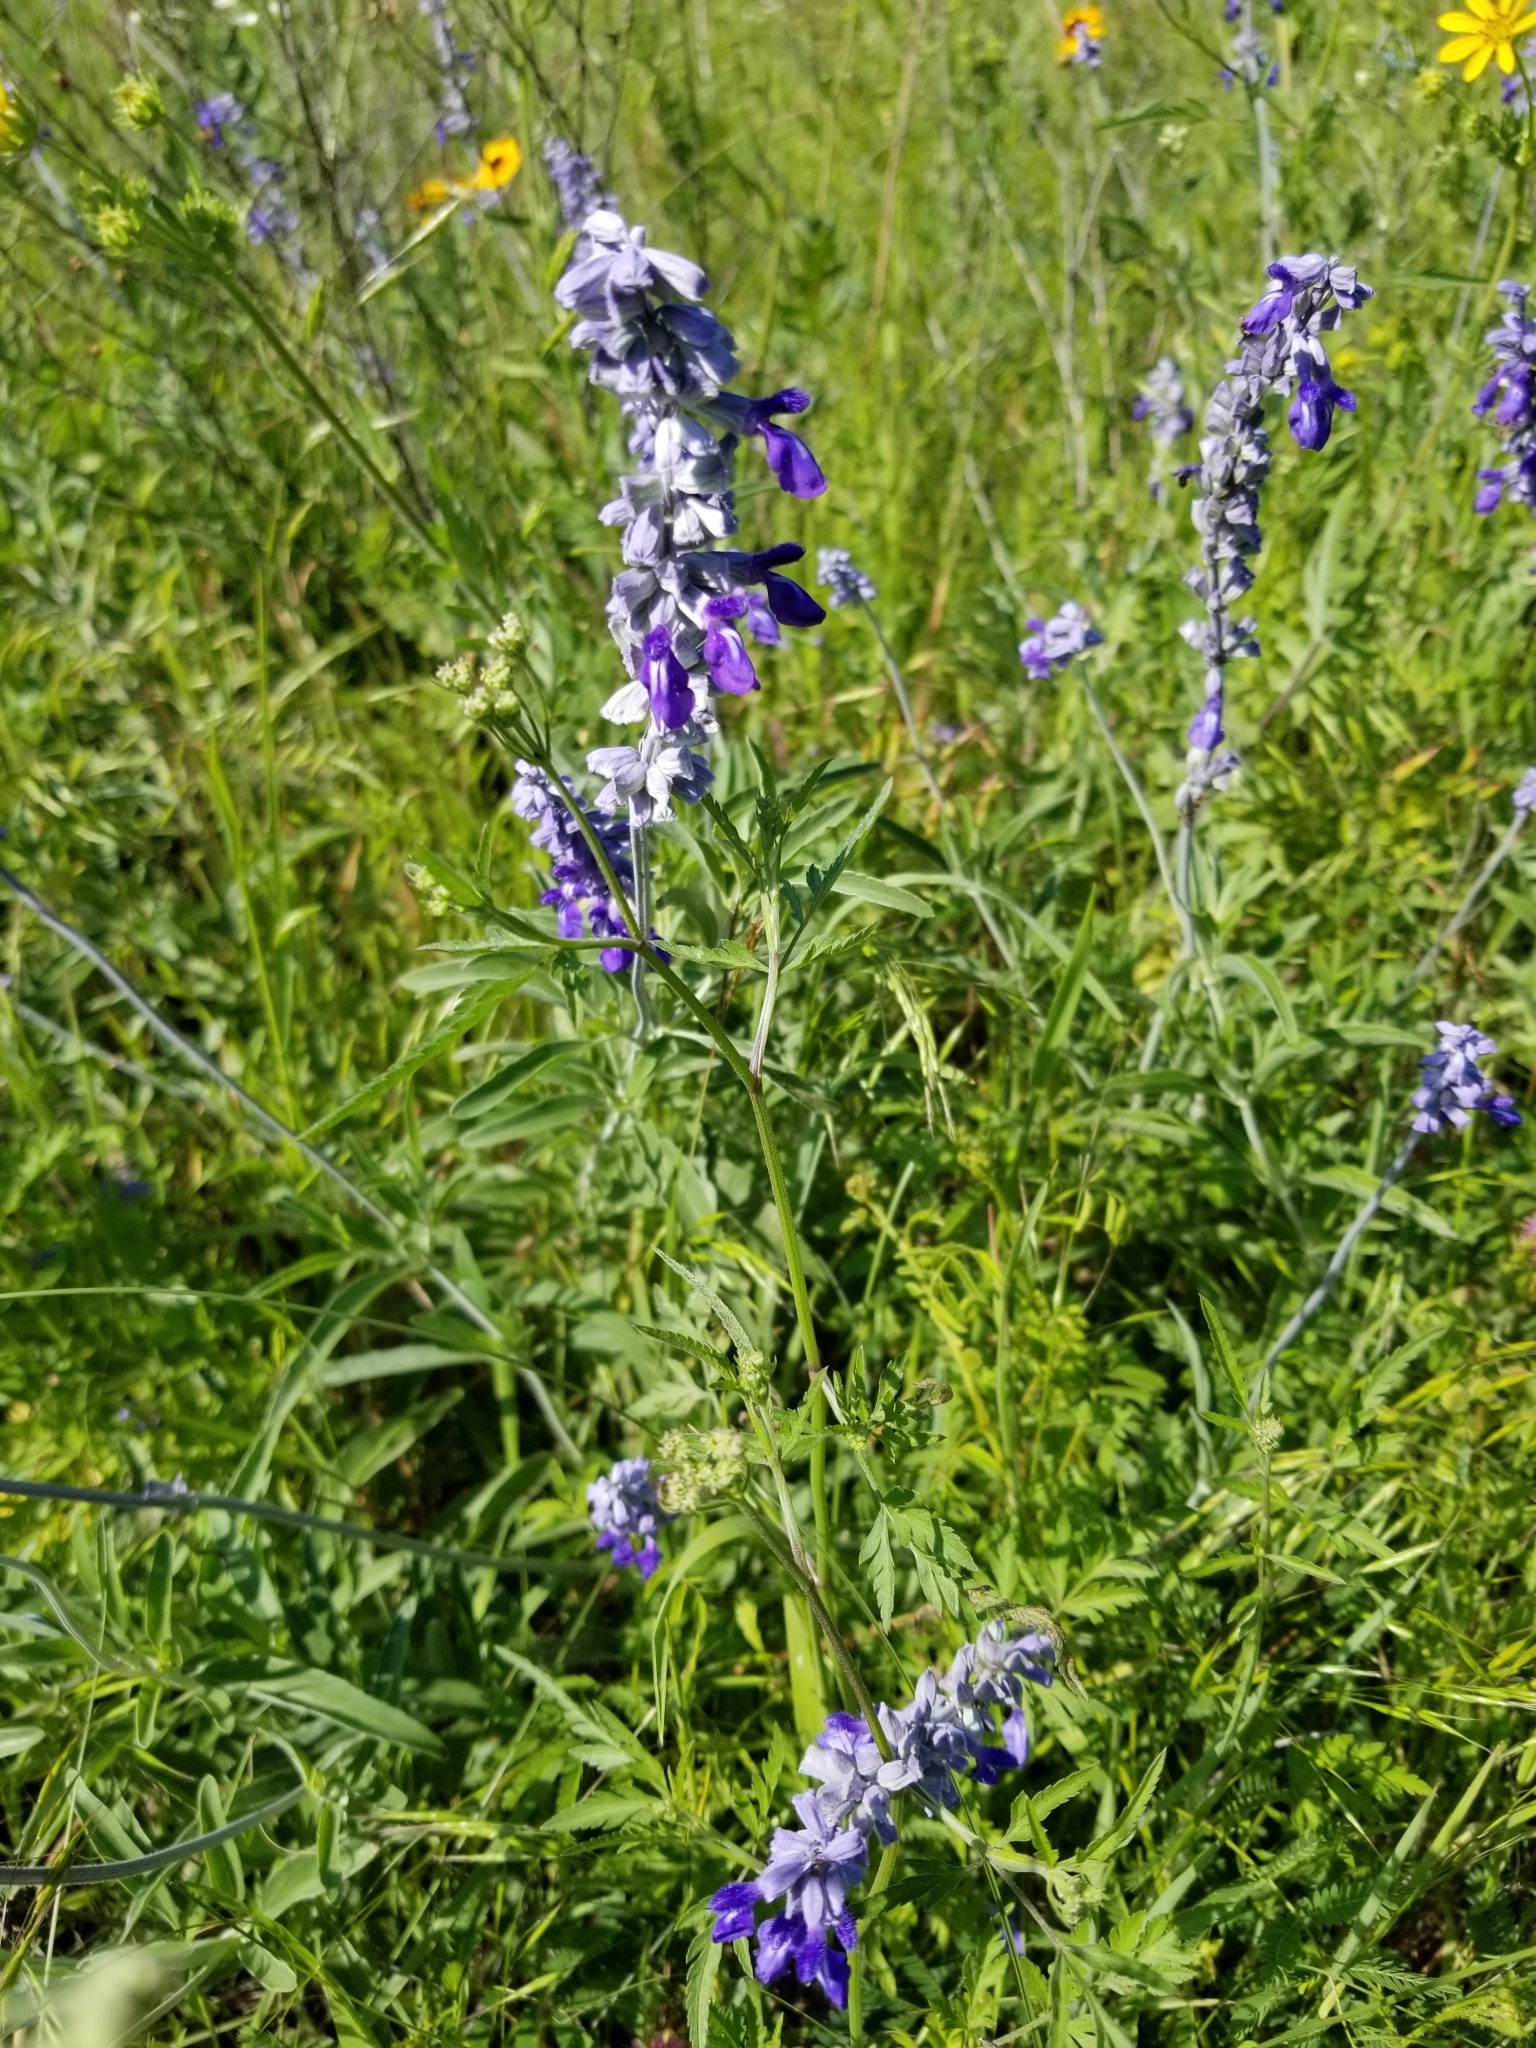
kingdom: Plantae
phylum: Tracheophyta
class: Magnoliopsida
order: Lamiales
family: Lamiaceae
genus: Salvia
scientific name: Salvia farinacea
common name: Mealy sage
